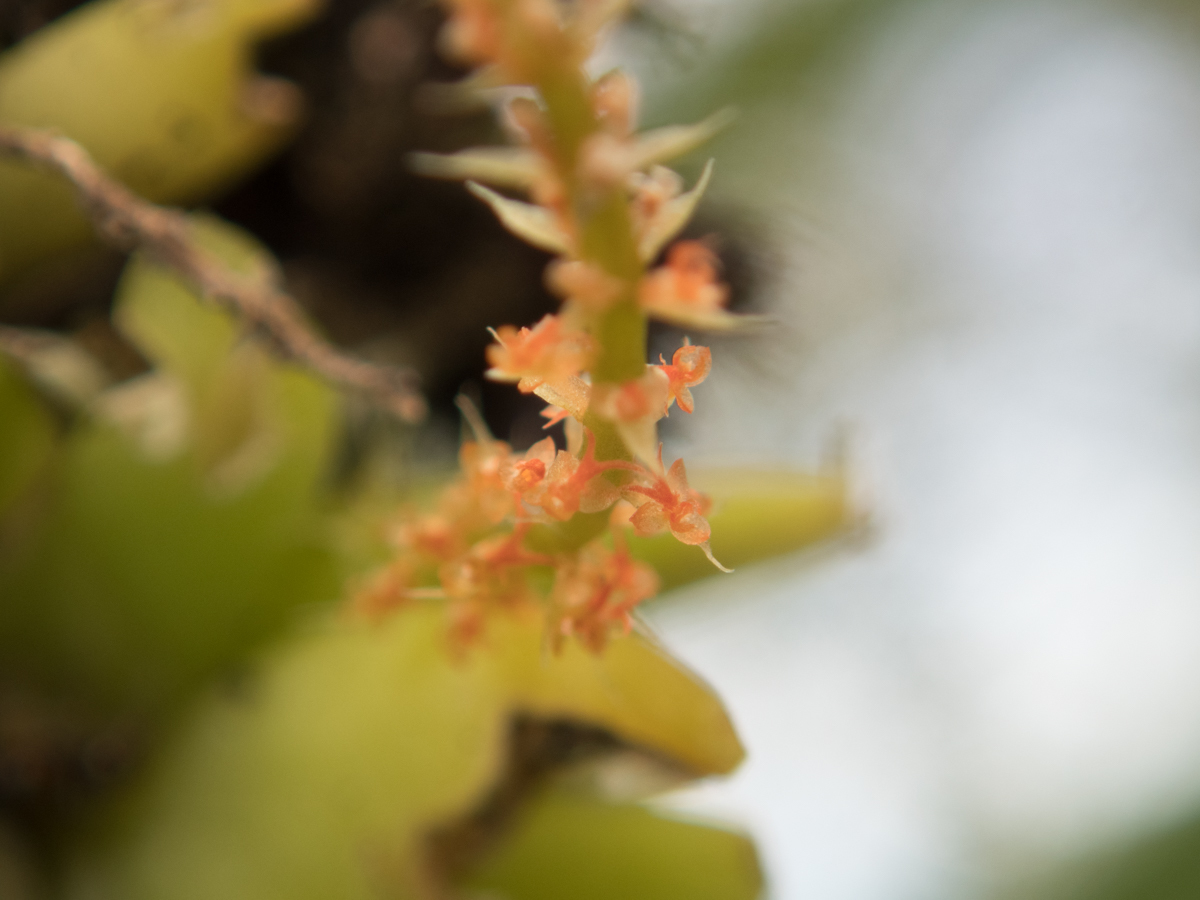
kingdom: Plantae
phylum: Tracheophyta
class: Liliopsida
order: Asparagales
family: Orchidaceae
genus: Oberonia
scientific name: Oberonia falcata
